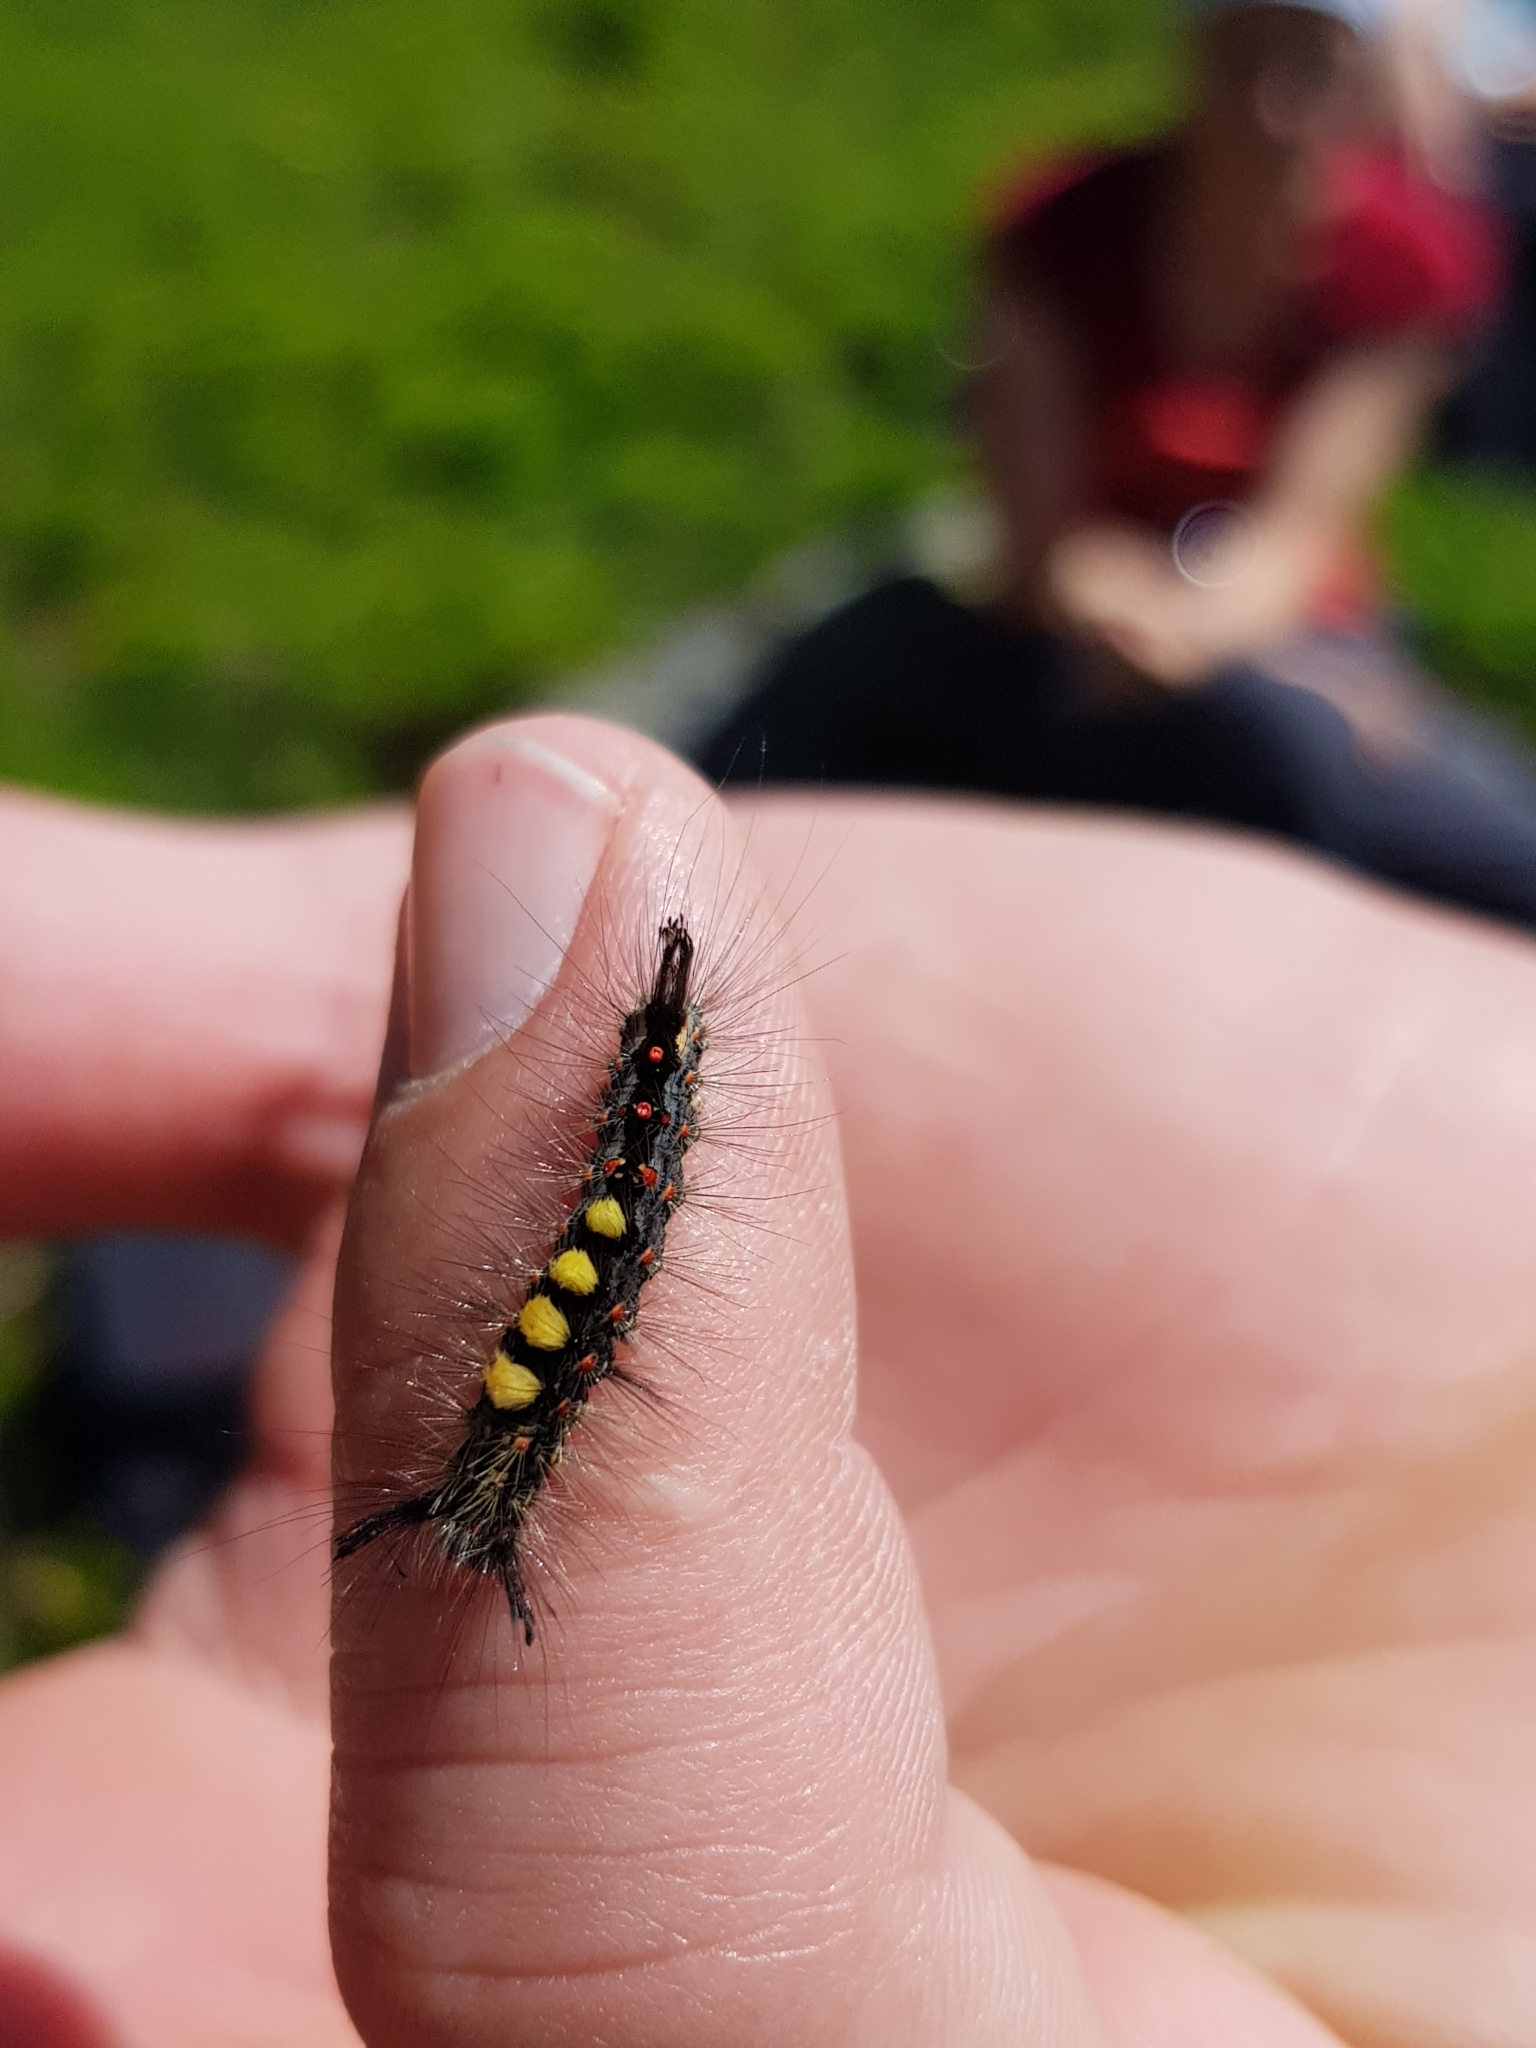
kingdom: Animalia
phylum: Arthropoda
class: Insecta
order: Lepidoptera
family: Erebidae
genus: Orgyia
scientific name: Orgyia antiqua
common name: Vapourer
